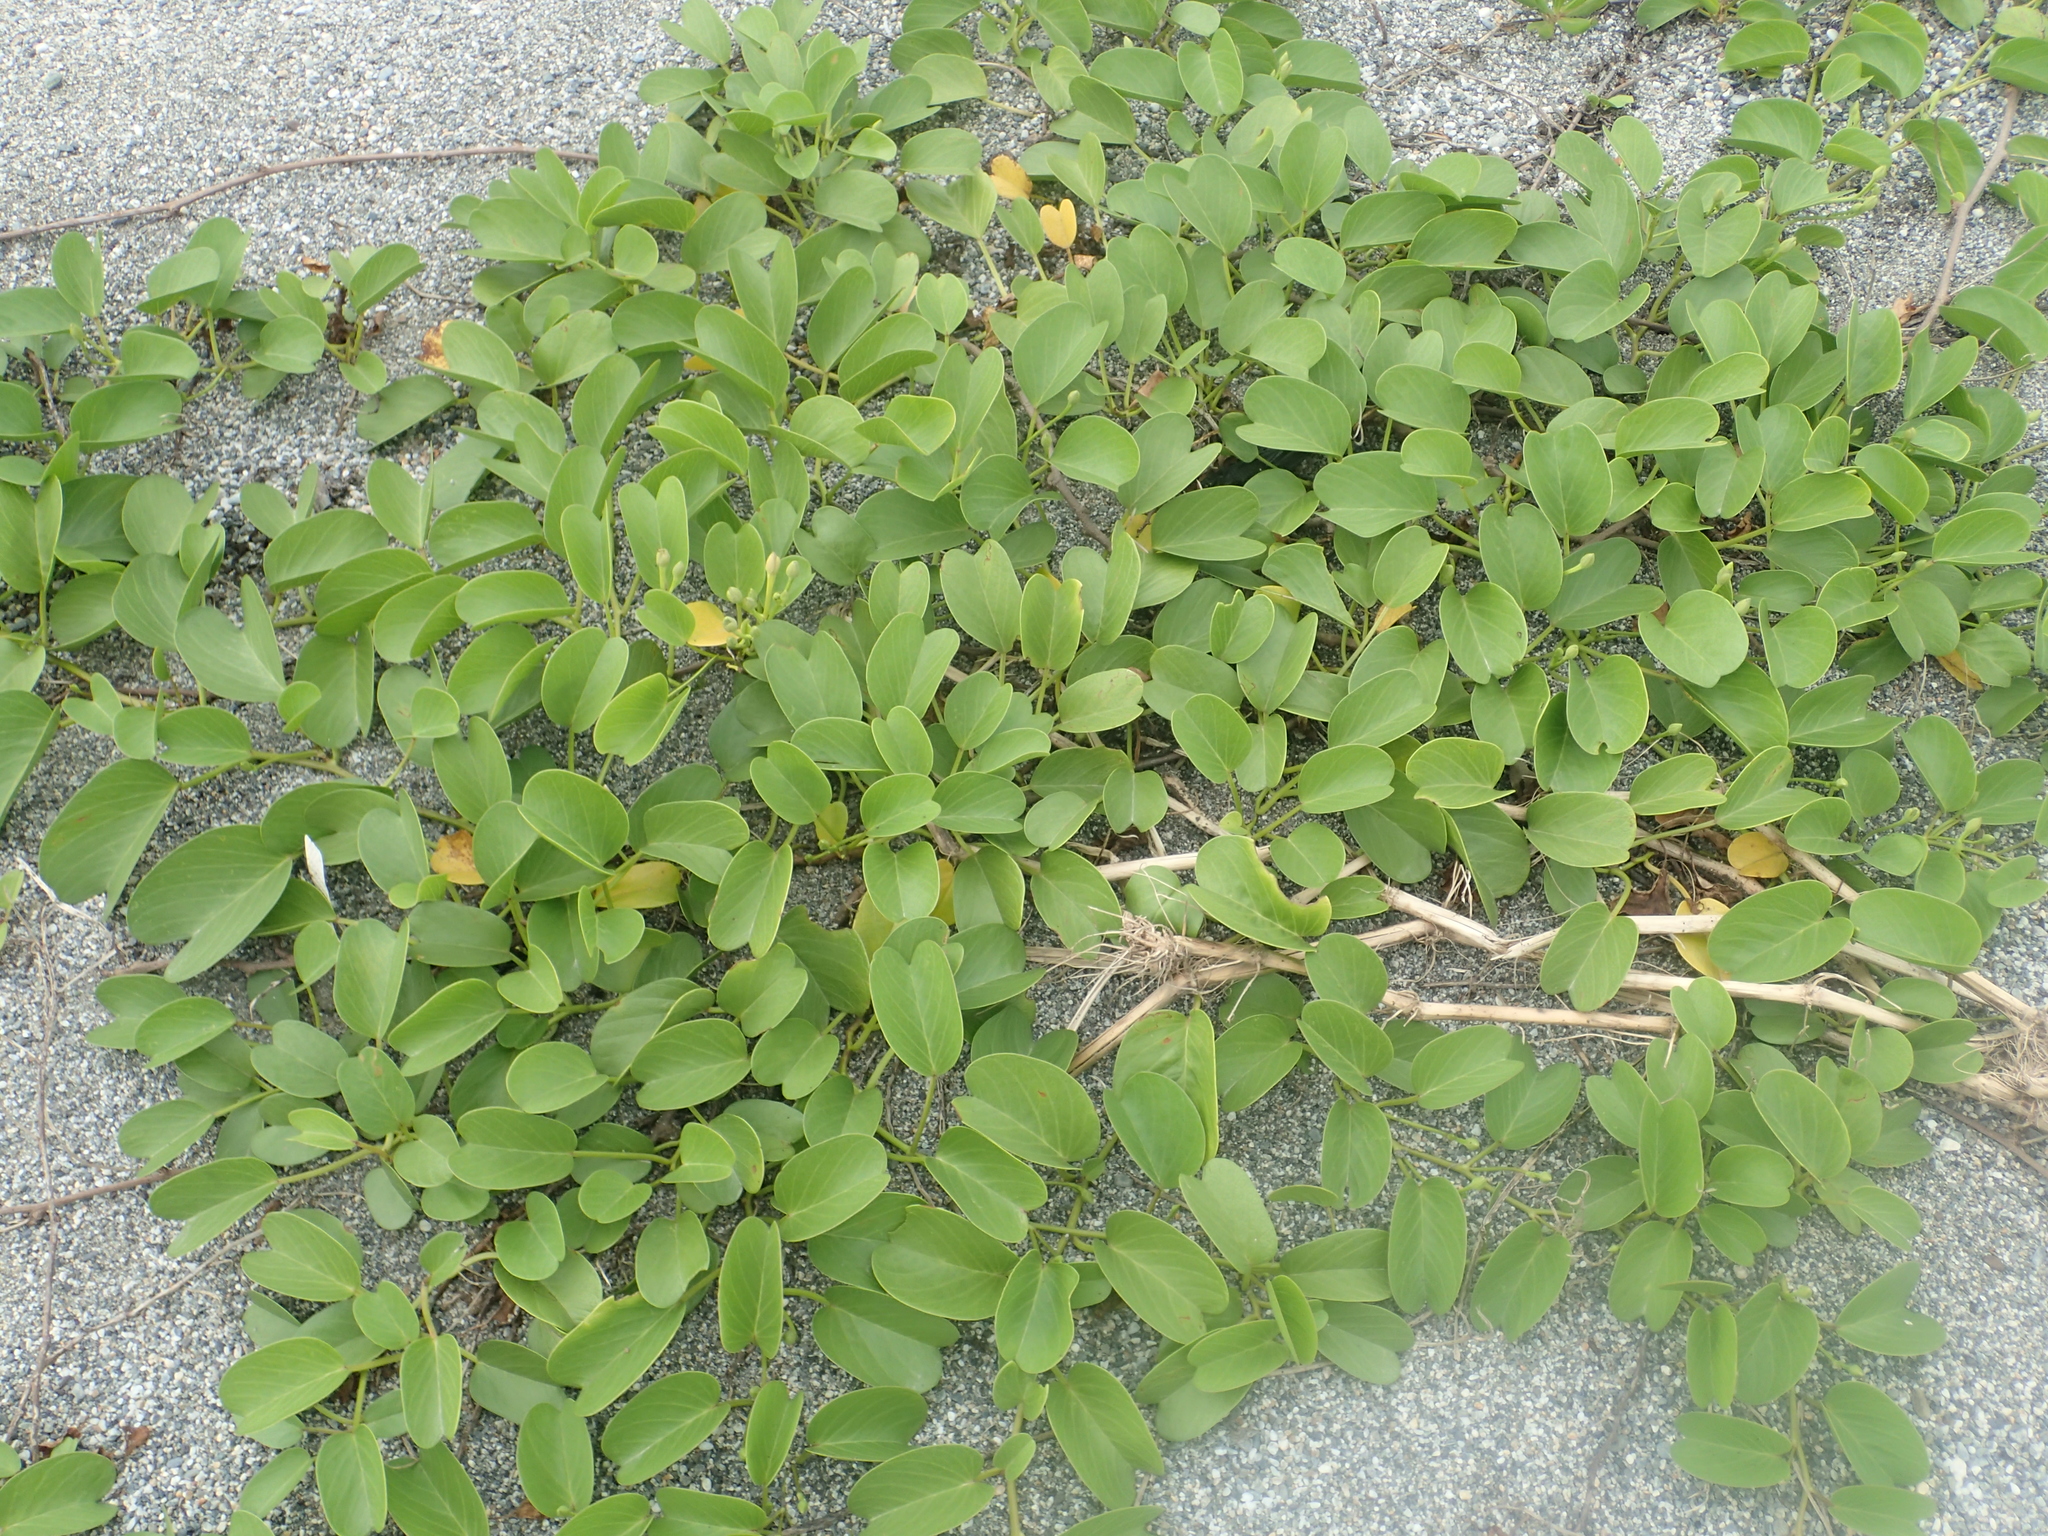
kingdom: Plantae
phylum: Tracheophyta
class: Magnoliopsida
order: Solanales
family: Convolvulaceae
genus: Ipomoea
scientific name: Ipomoea pes-caprae
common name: Beach morning glory
